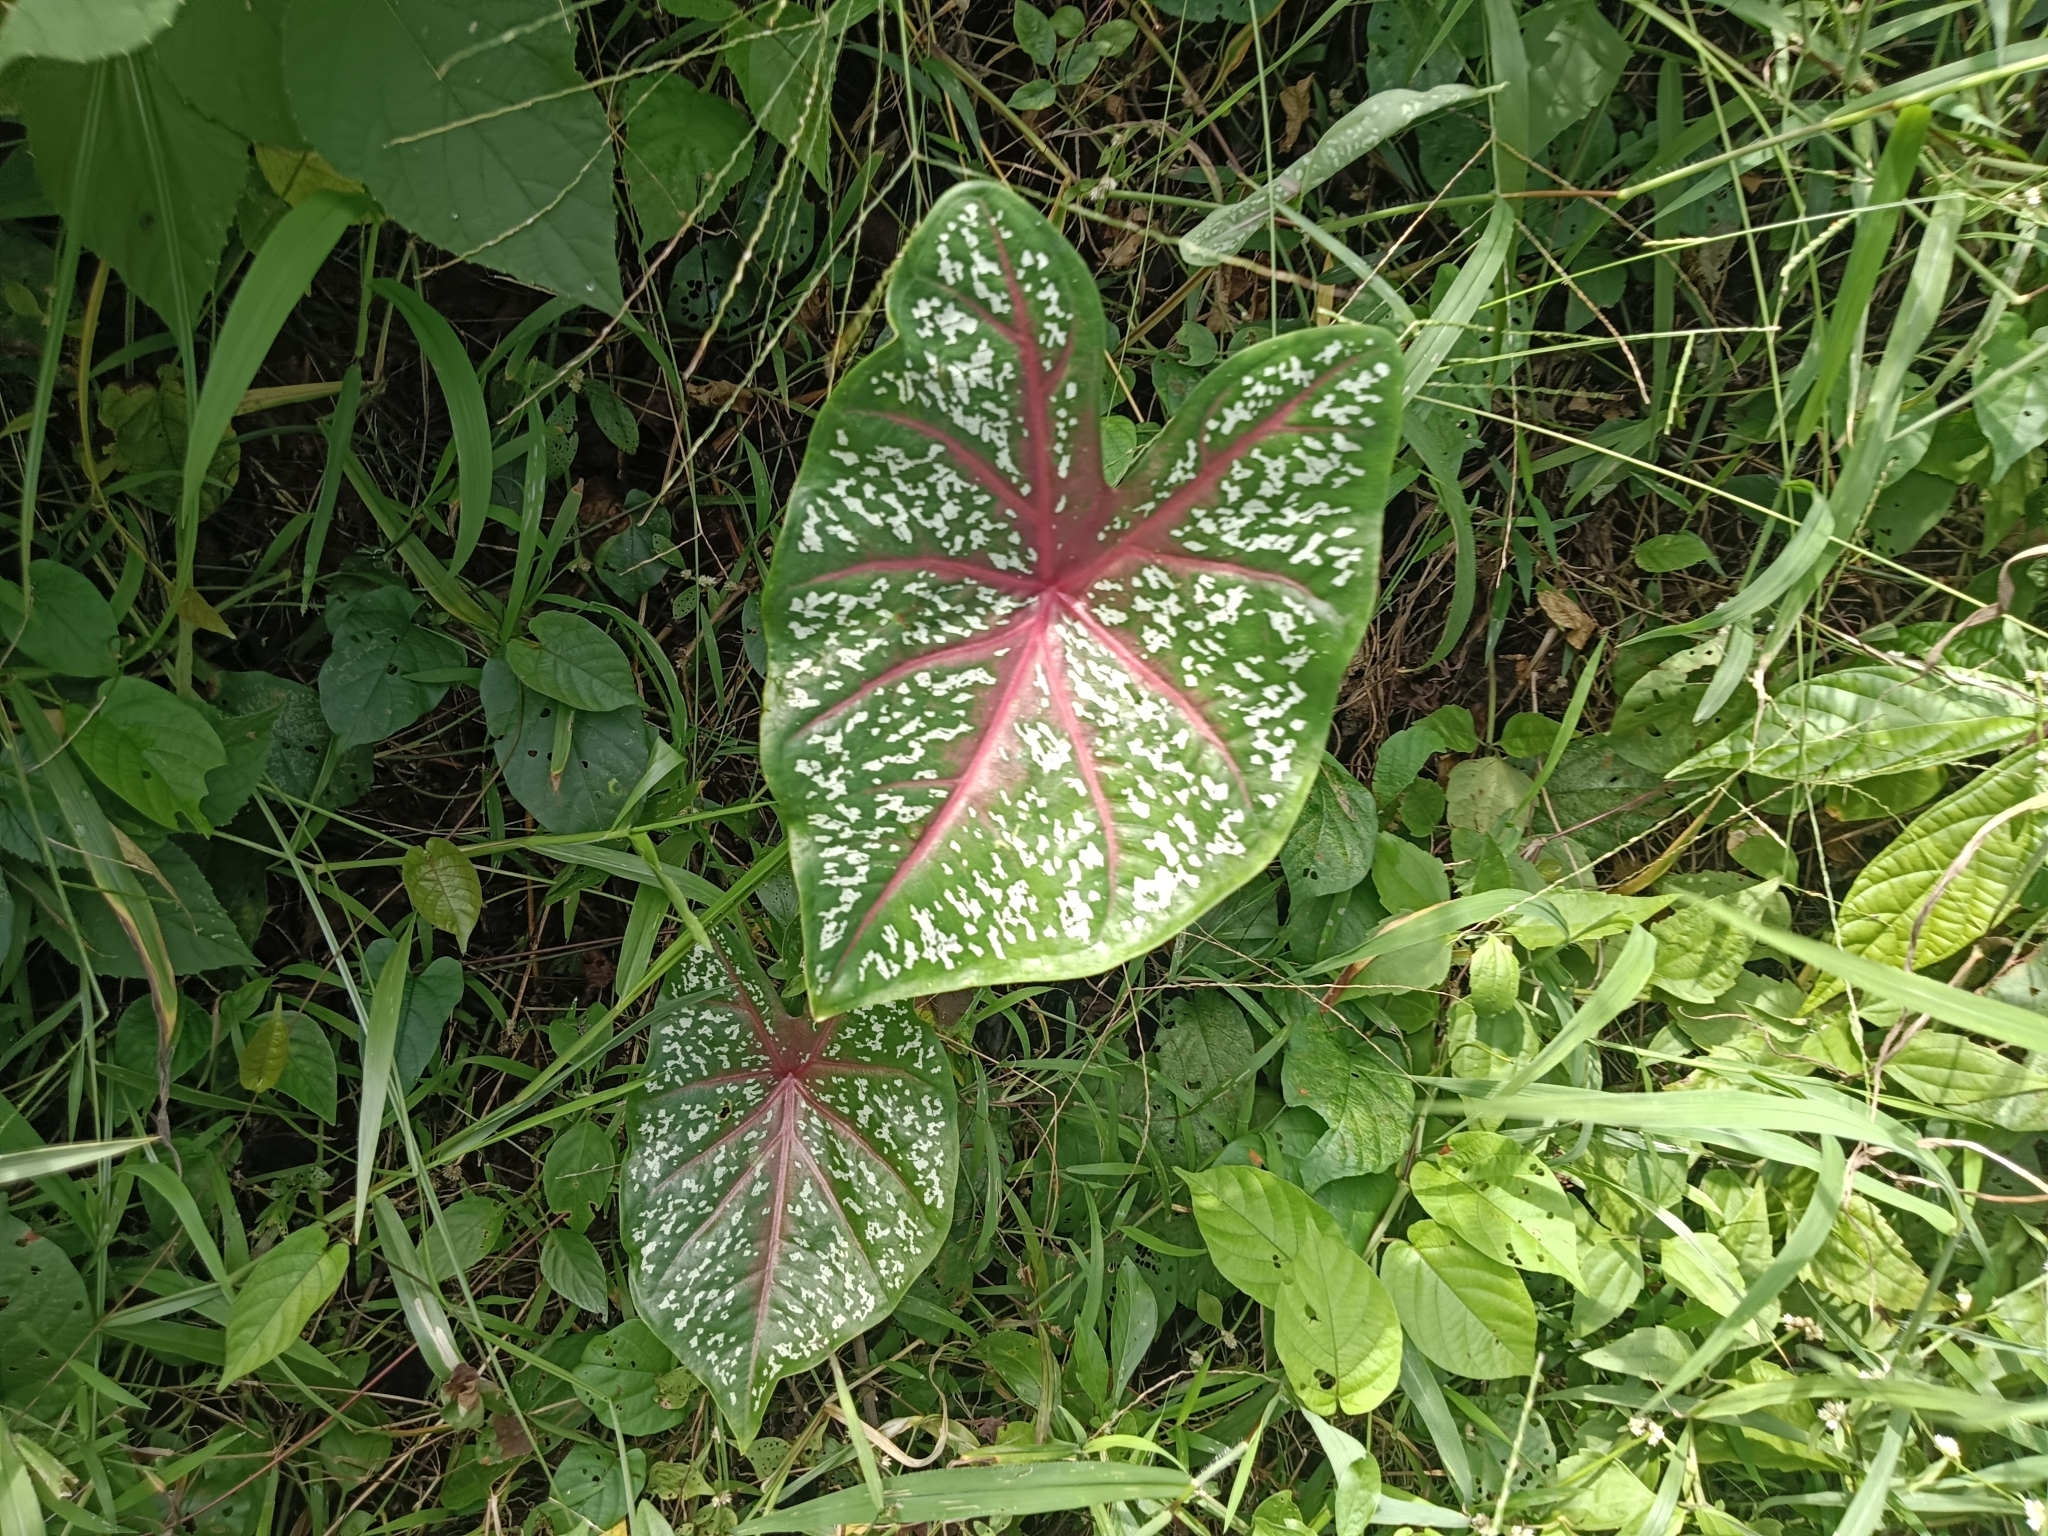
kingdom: Plantae
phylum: Tracheophyta
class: Liliopsida
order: Alismatales
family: Araceae
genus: Caladium
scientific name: Caladium bicolor
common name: Artist's pallet
